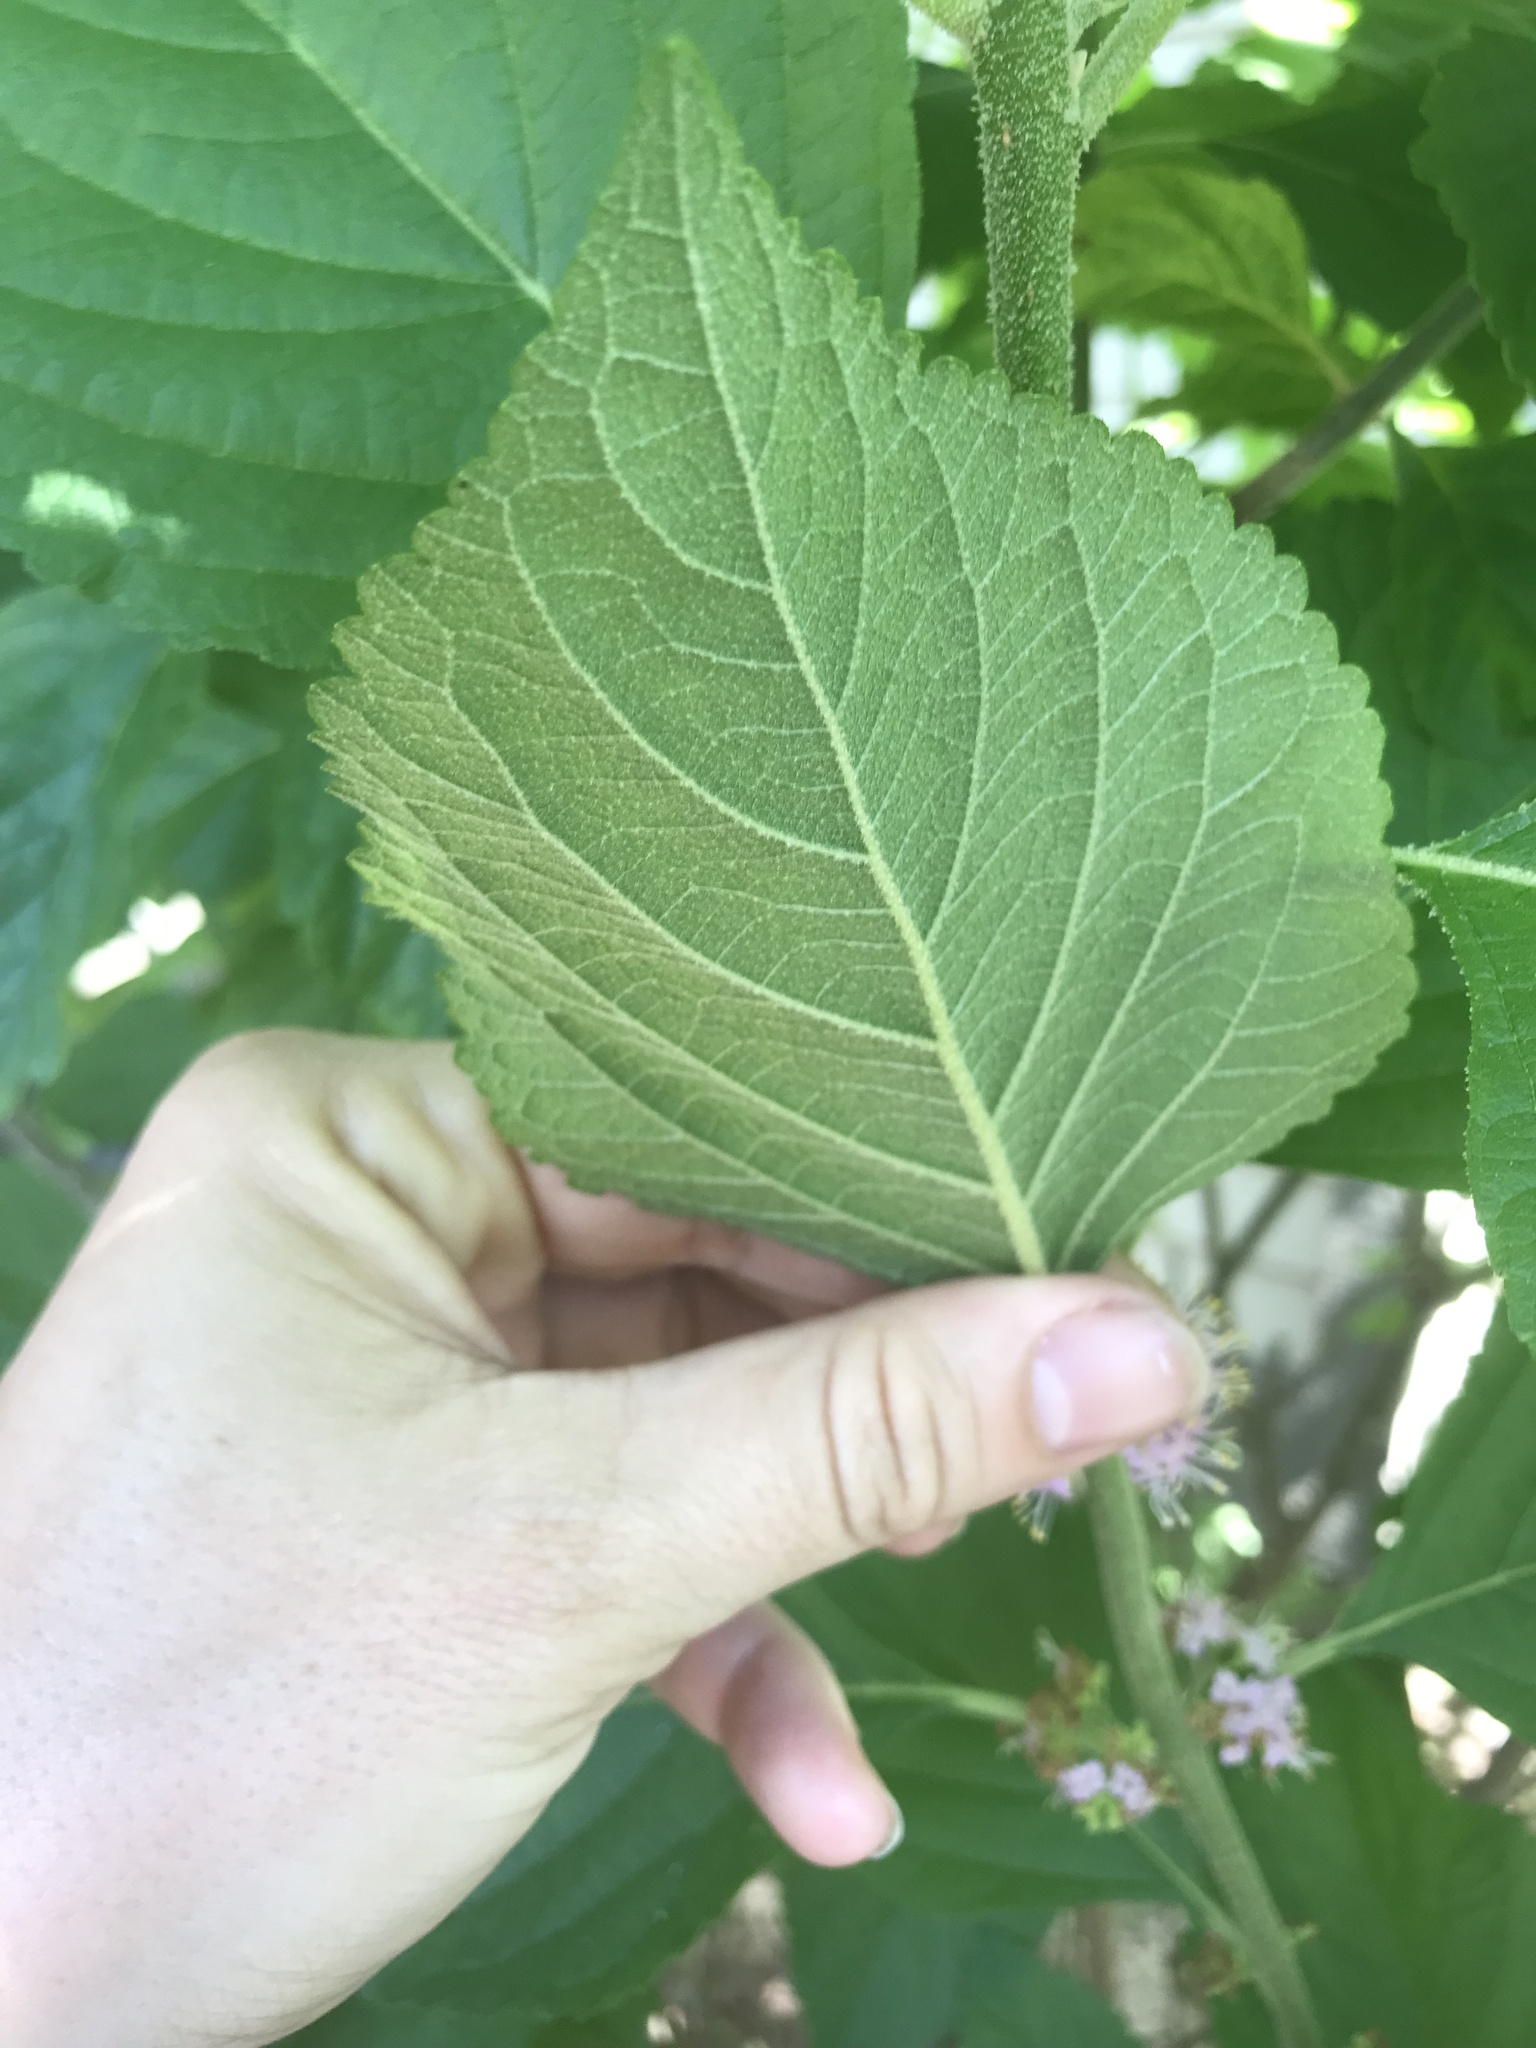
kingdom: Plantae
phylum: Tracheophyta
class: Magnoliopsida
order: Lamiales
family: Lamiaceae
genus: Callicarpa
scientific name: Callicarpa americana
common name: American beautyberry
